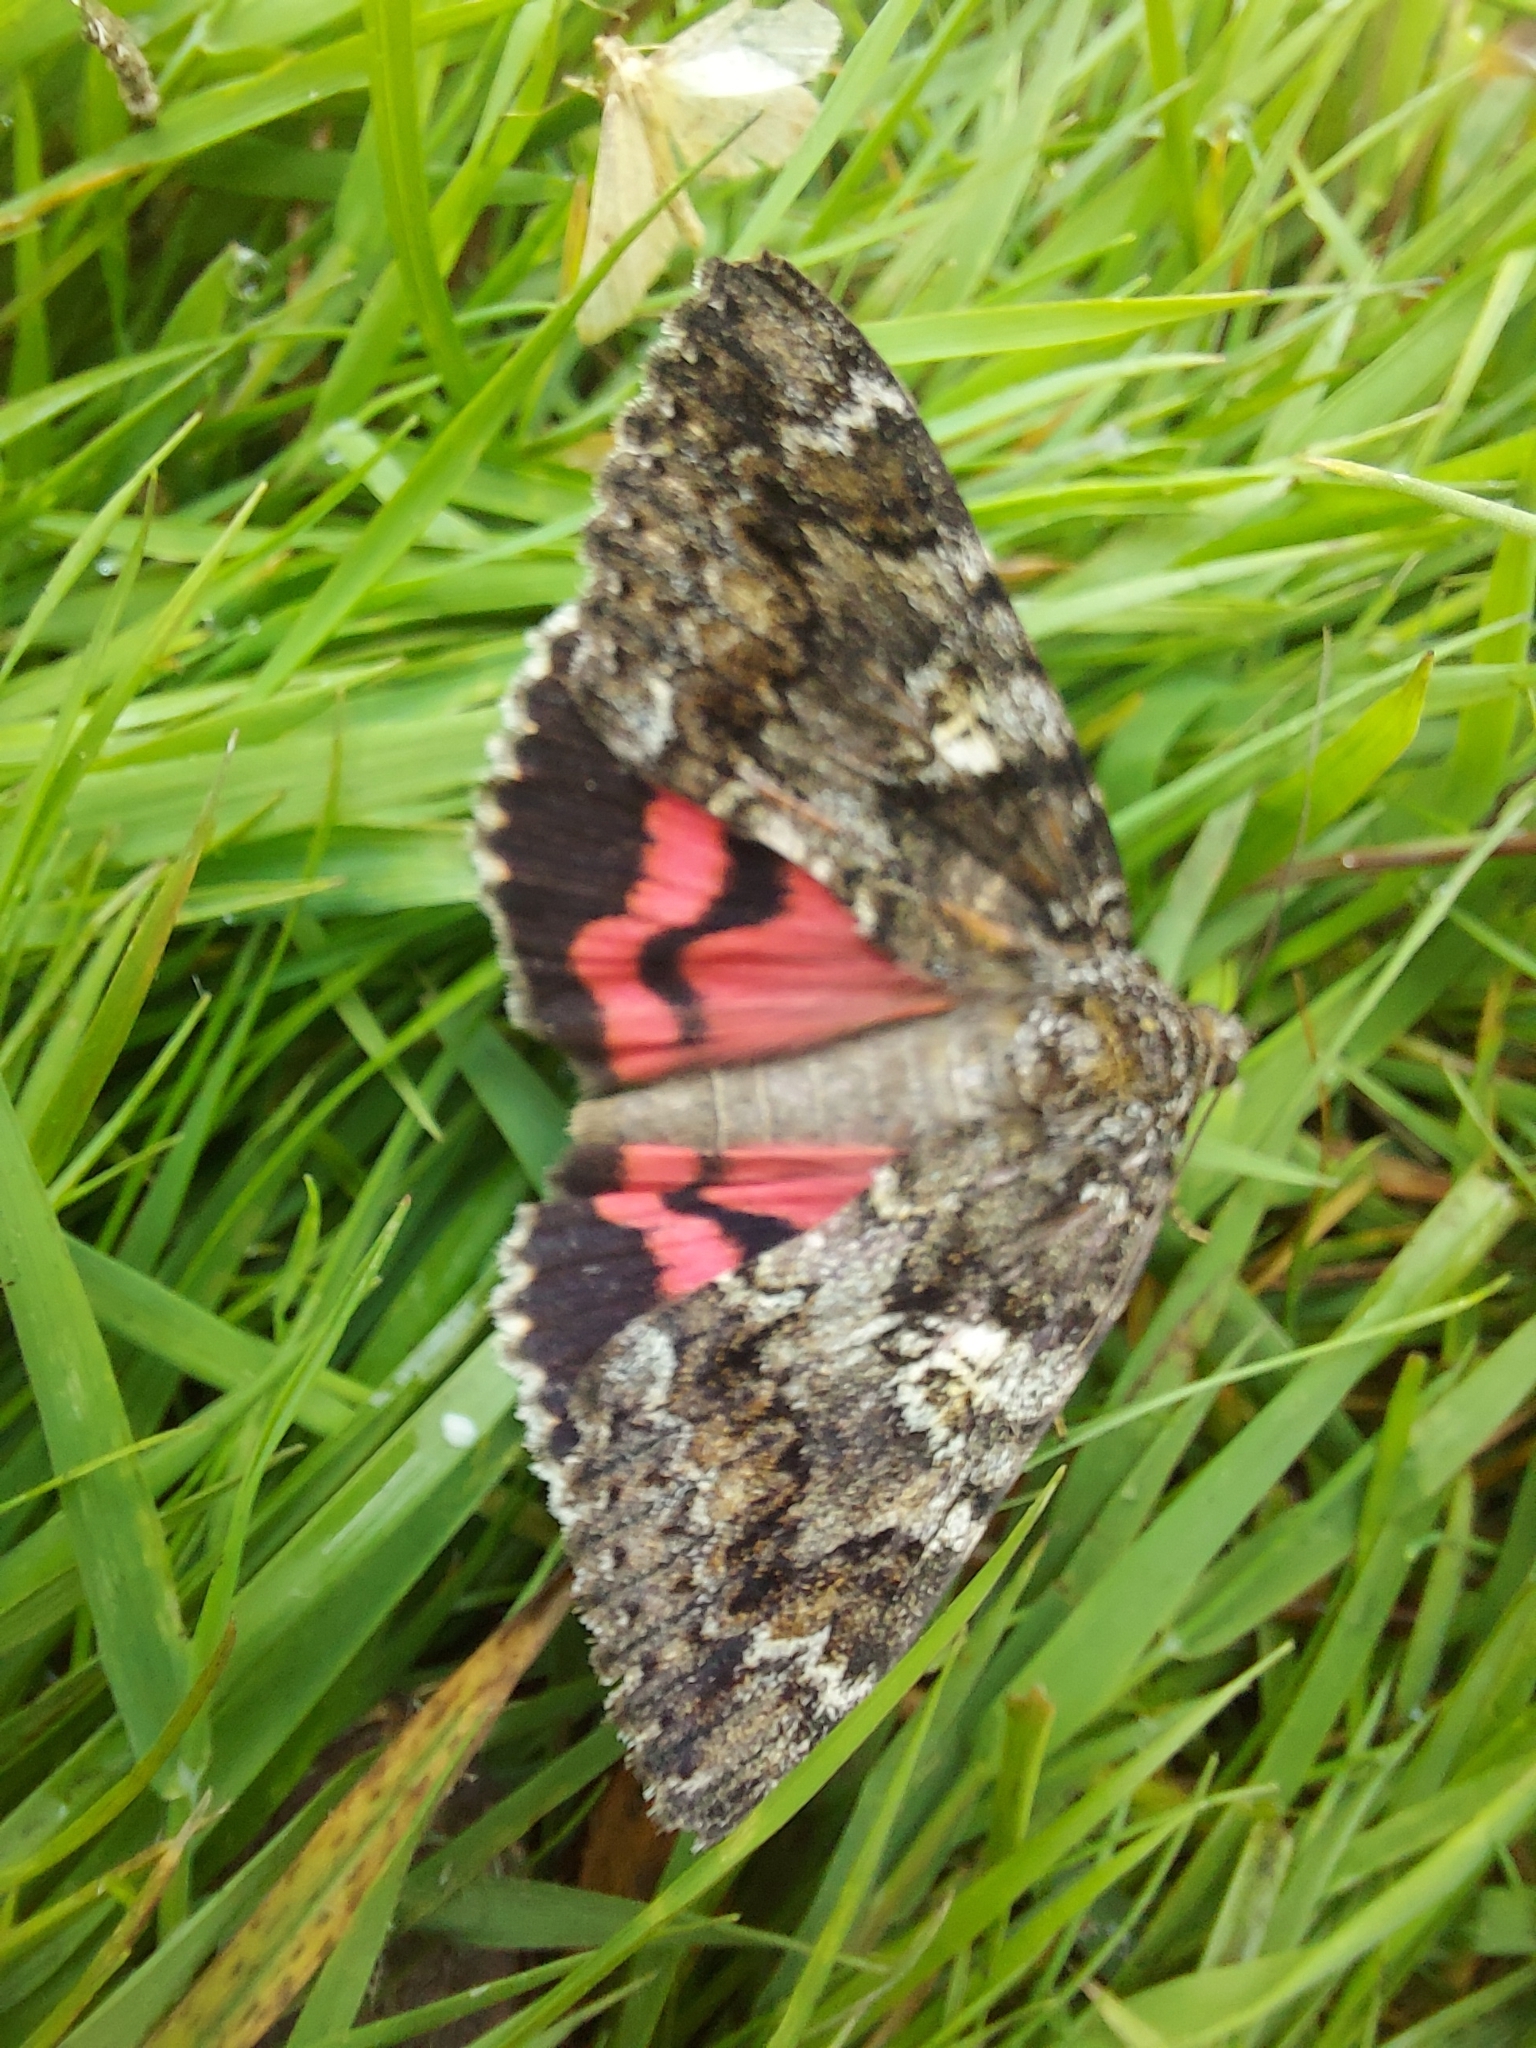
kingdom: Animalia
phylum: Arthropoda
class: Insecta
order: Lepidoptera
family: Erebidae
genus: Catocala
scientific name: Catocala sponsa
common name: Dark crimson underwing
